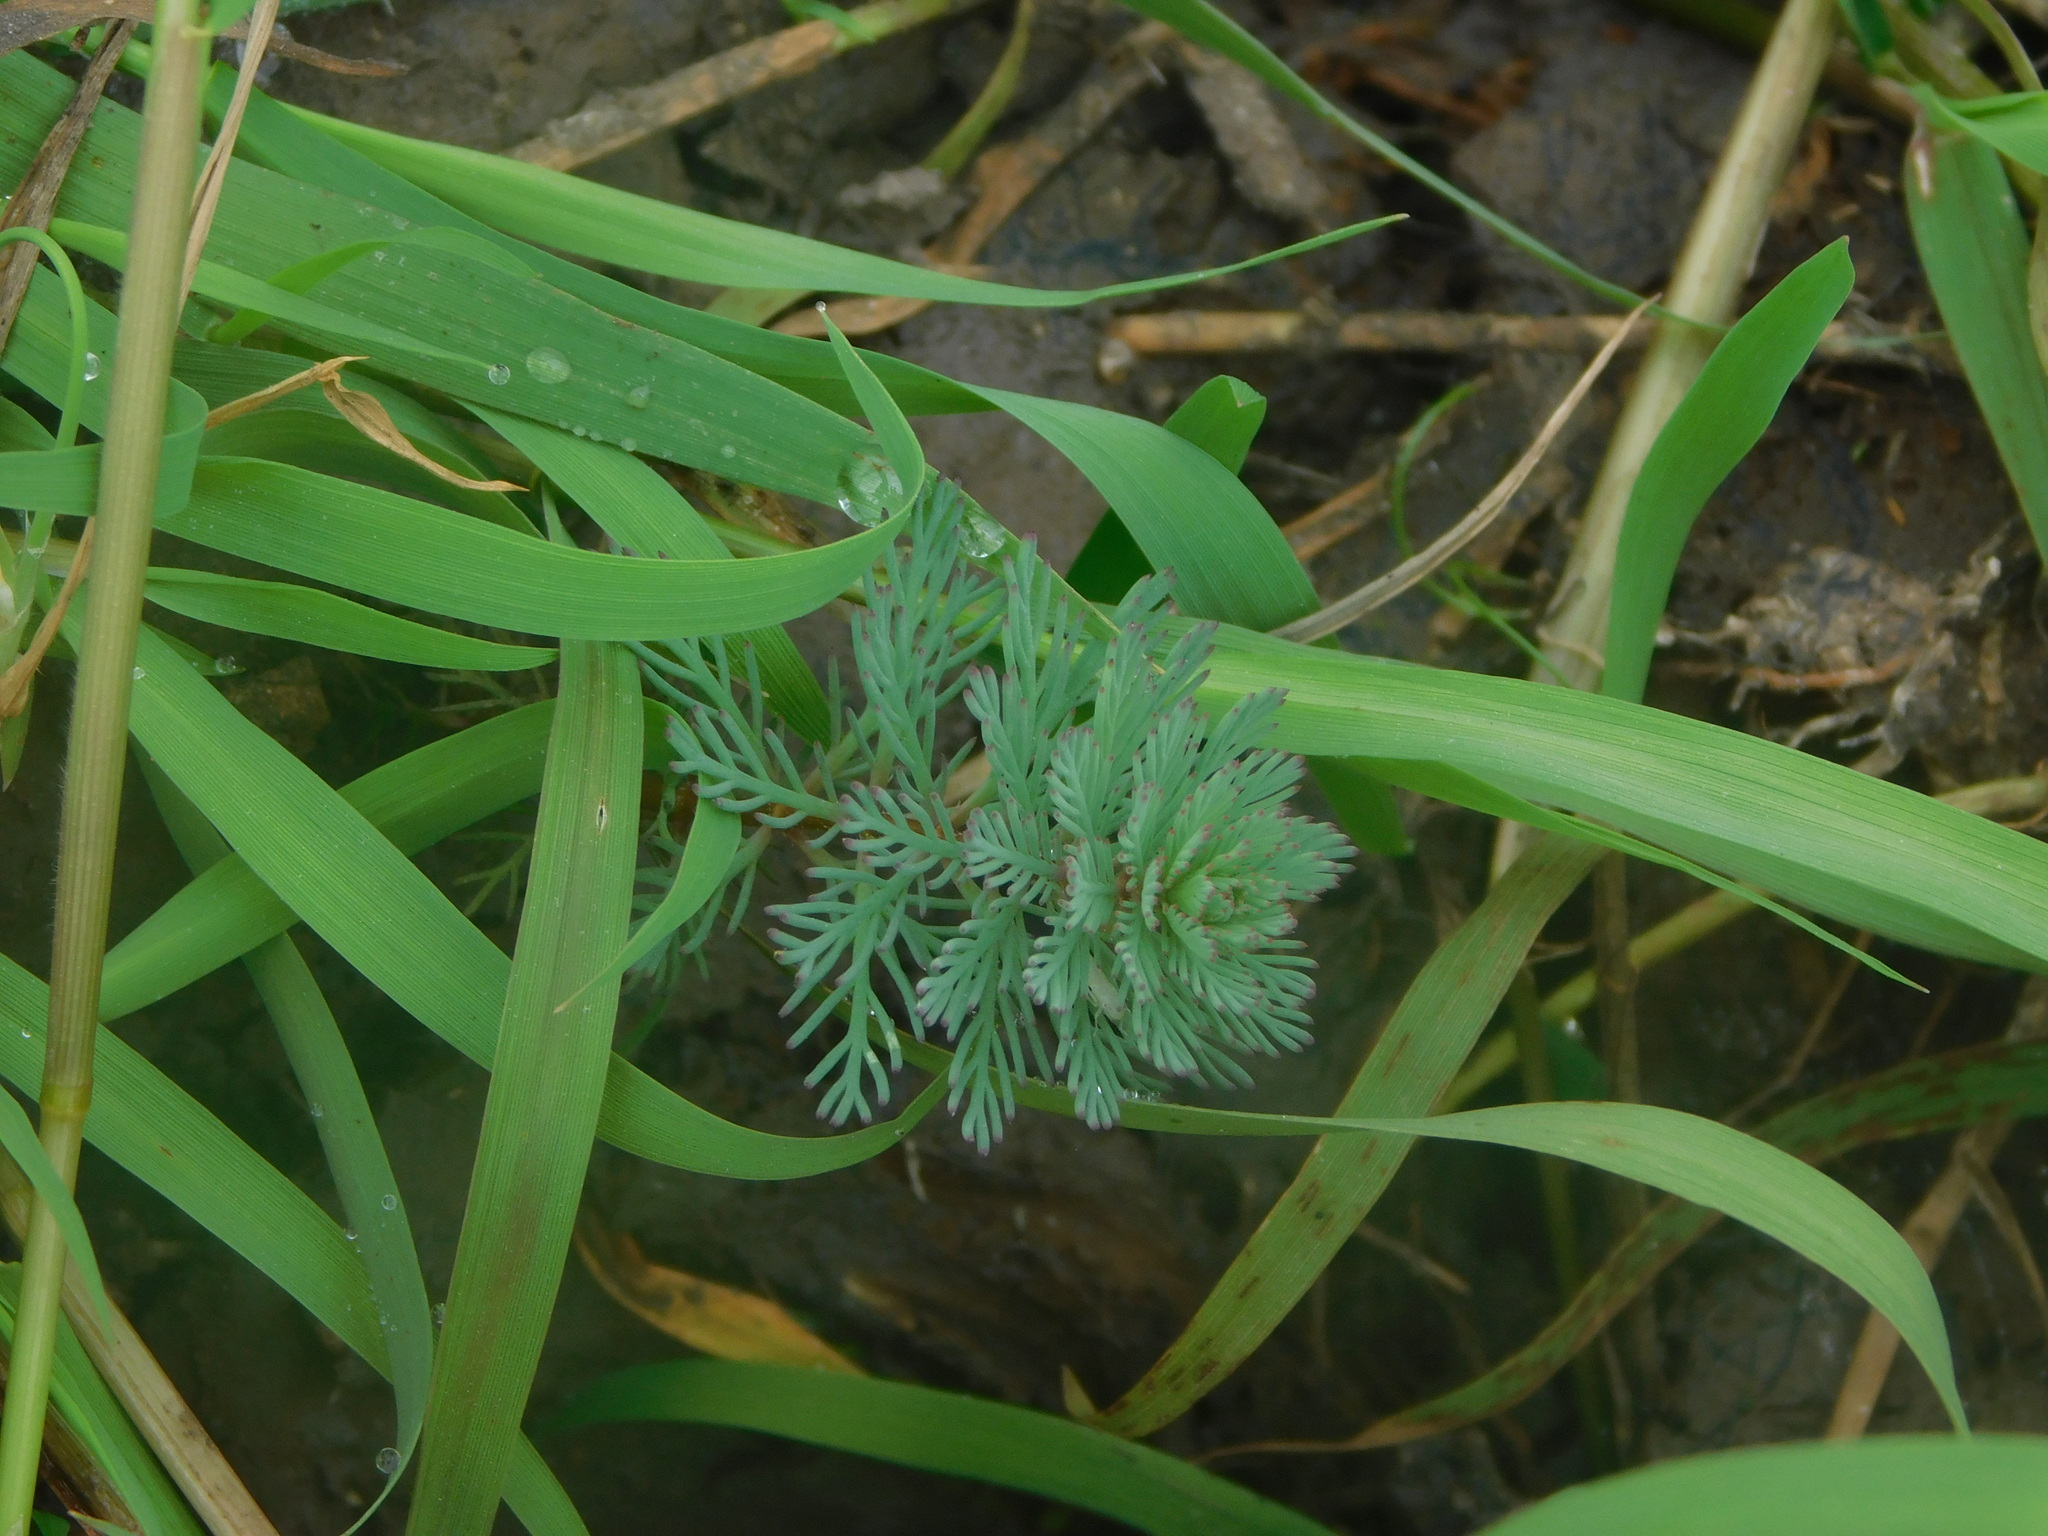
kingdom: Plantae
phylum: Tracheophyta
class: Magnoliopsida
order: Saxifragales
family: Haloragaceae
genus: Myriophyllum
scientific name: Myriophyllum aquaticum
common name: Parrot's feather
